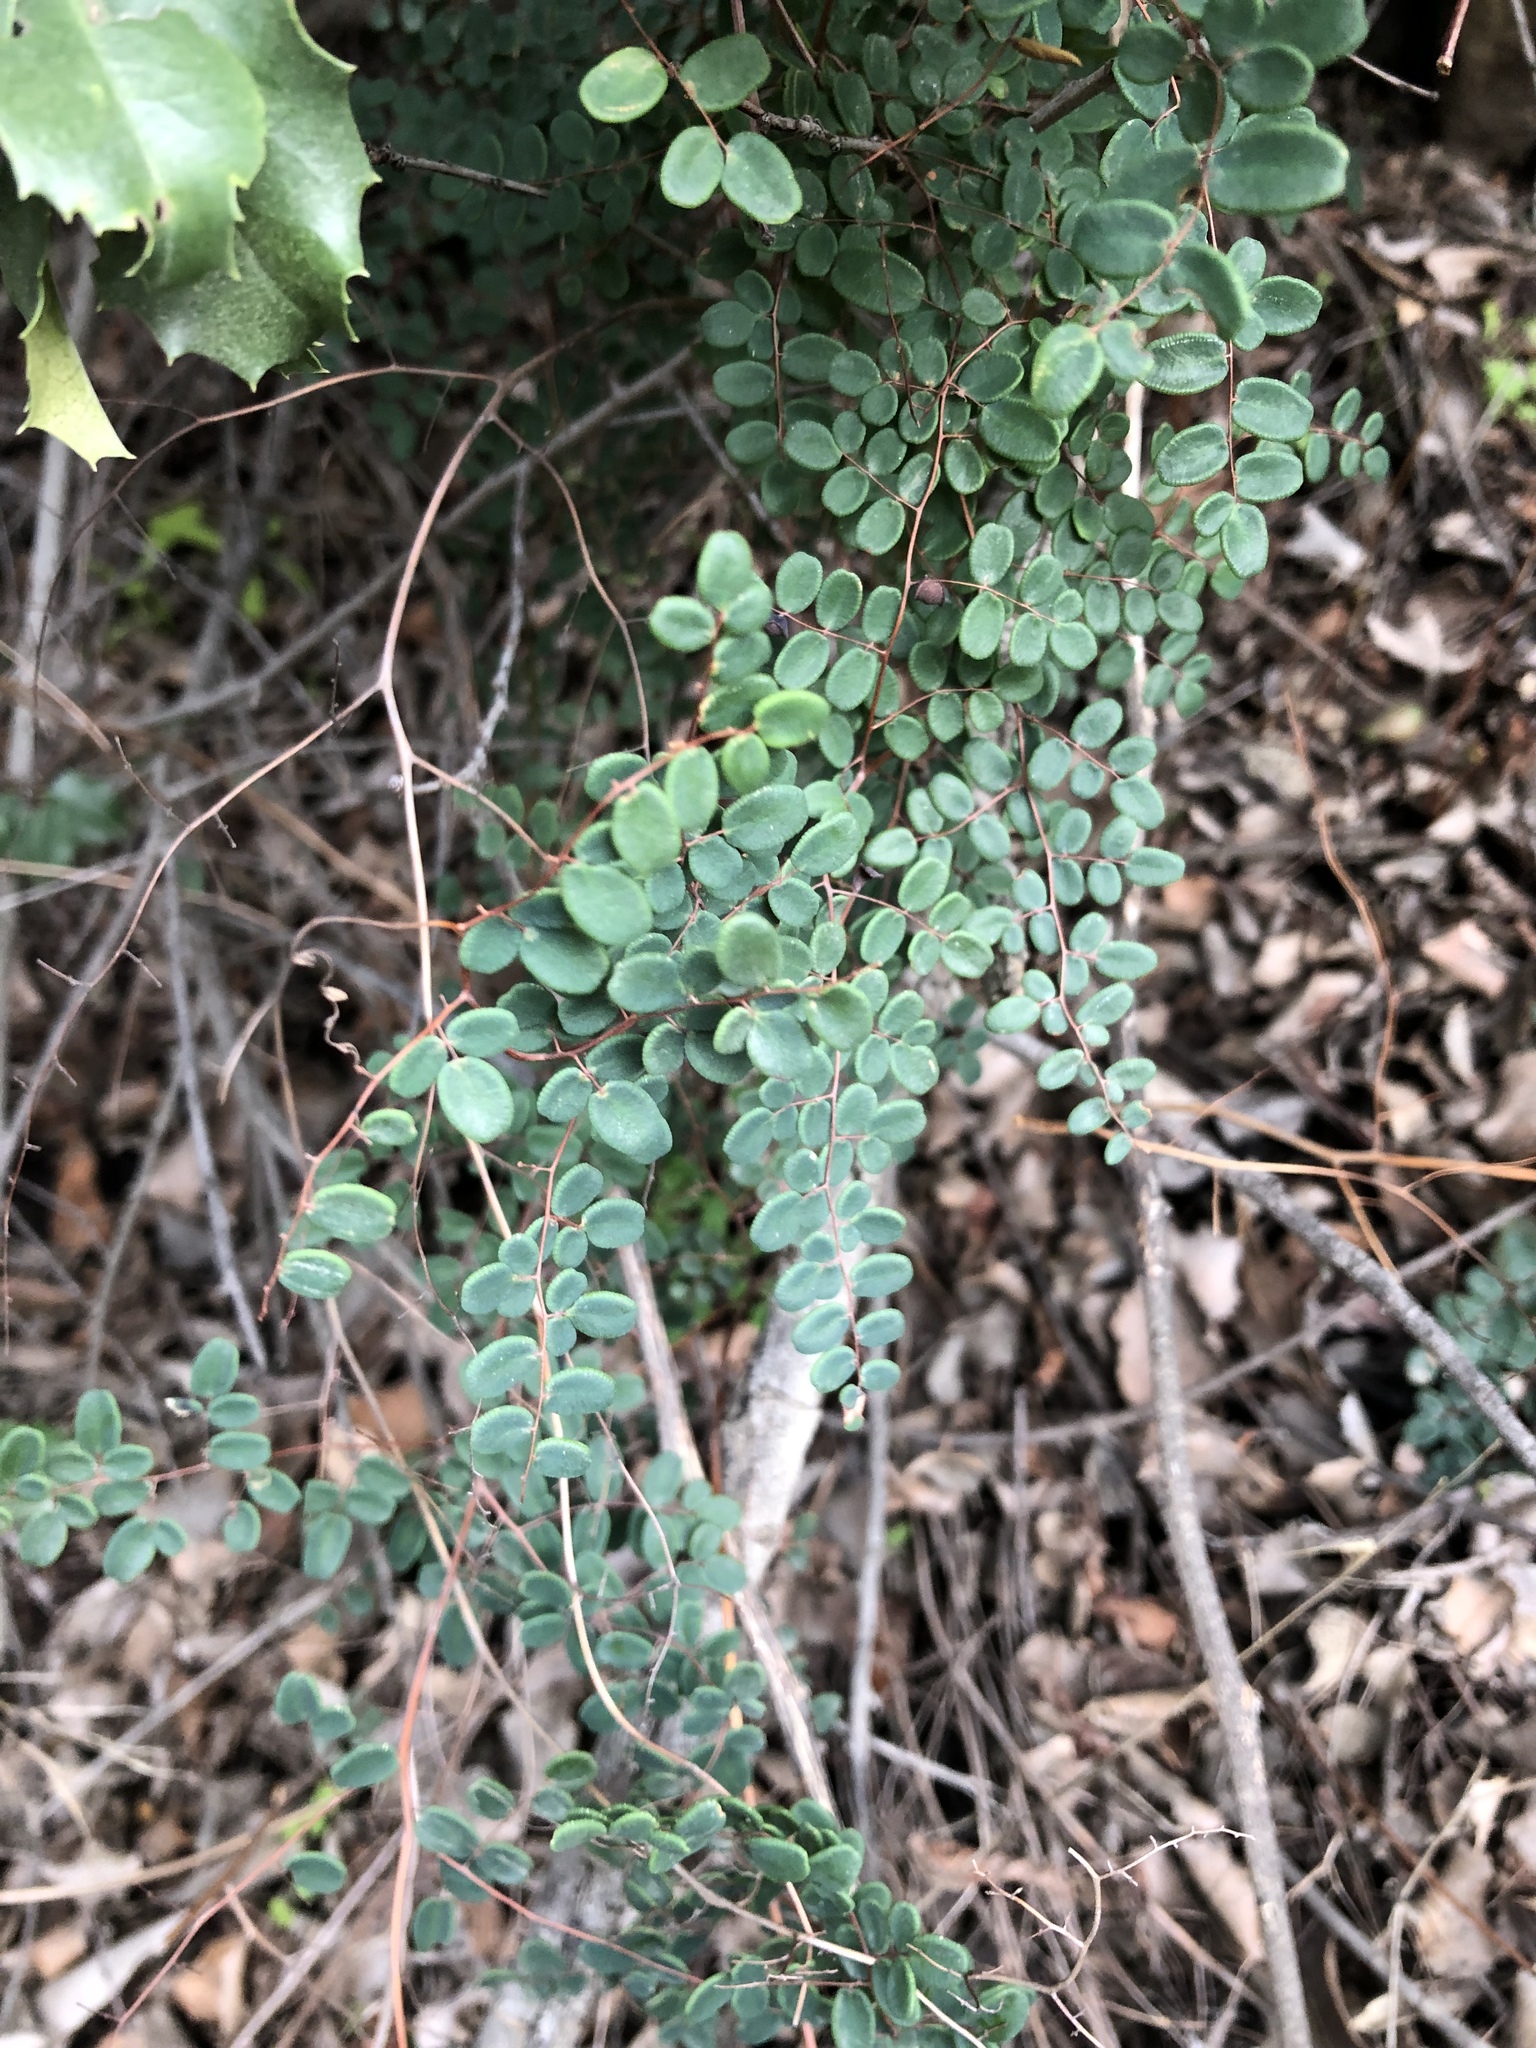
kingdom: Plantae
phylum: Tracheophyta
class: Polypodiopsida
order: Polypodiales
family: Pteridaceae
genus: Pellaea
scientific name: Pellaea andromedifolia
